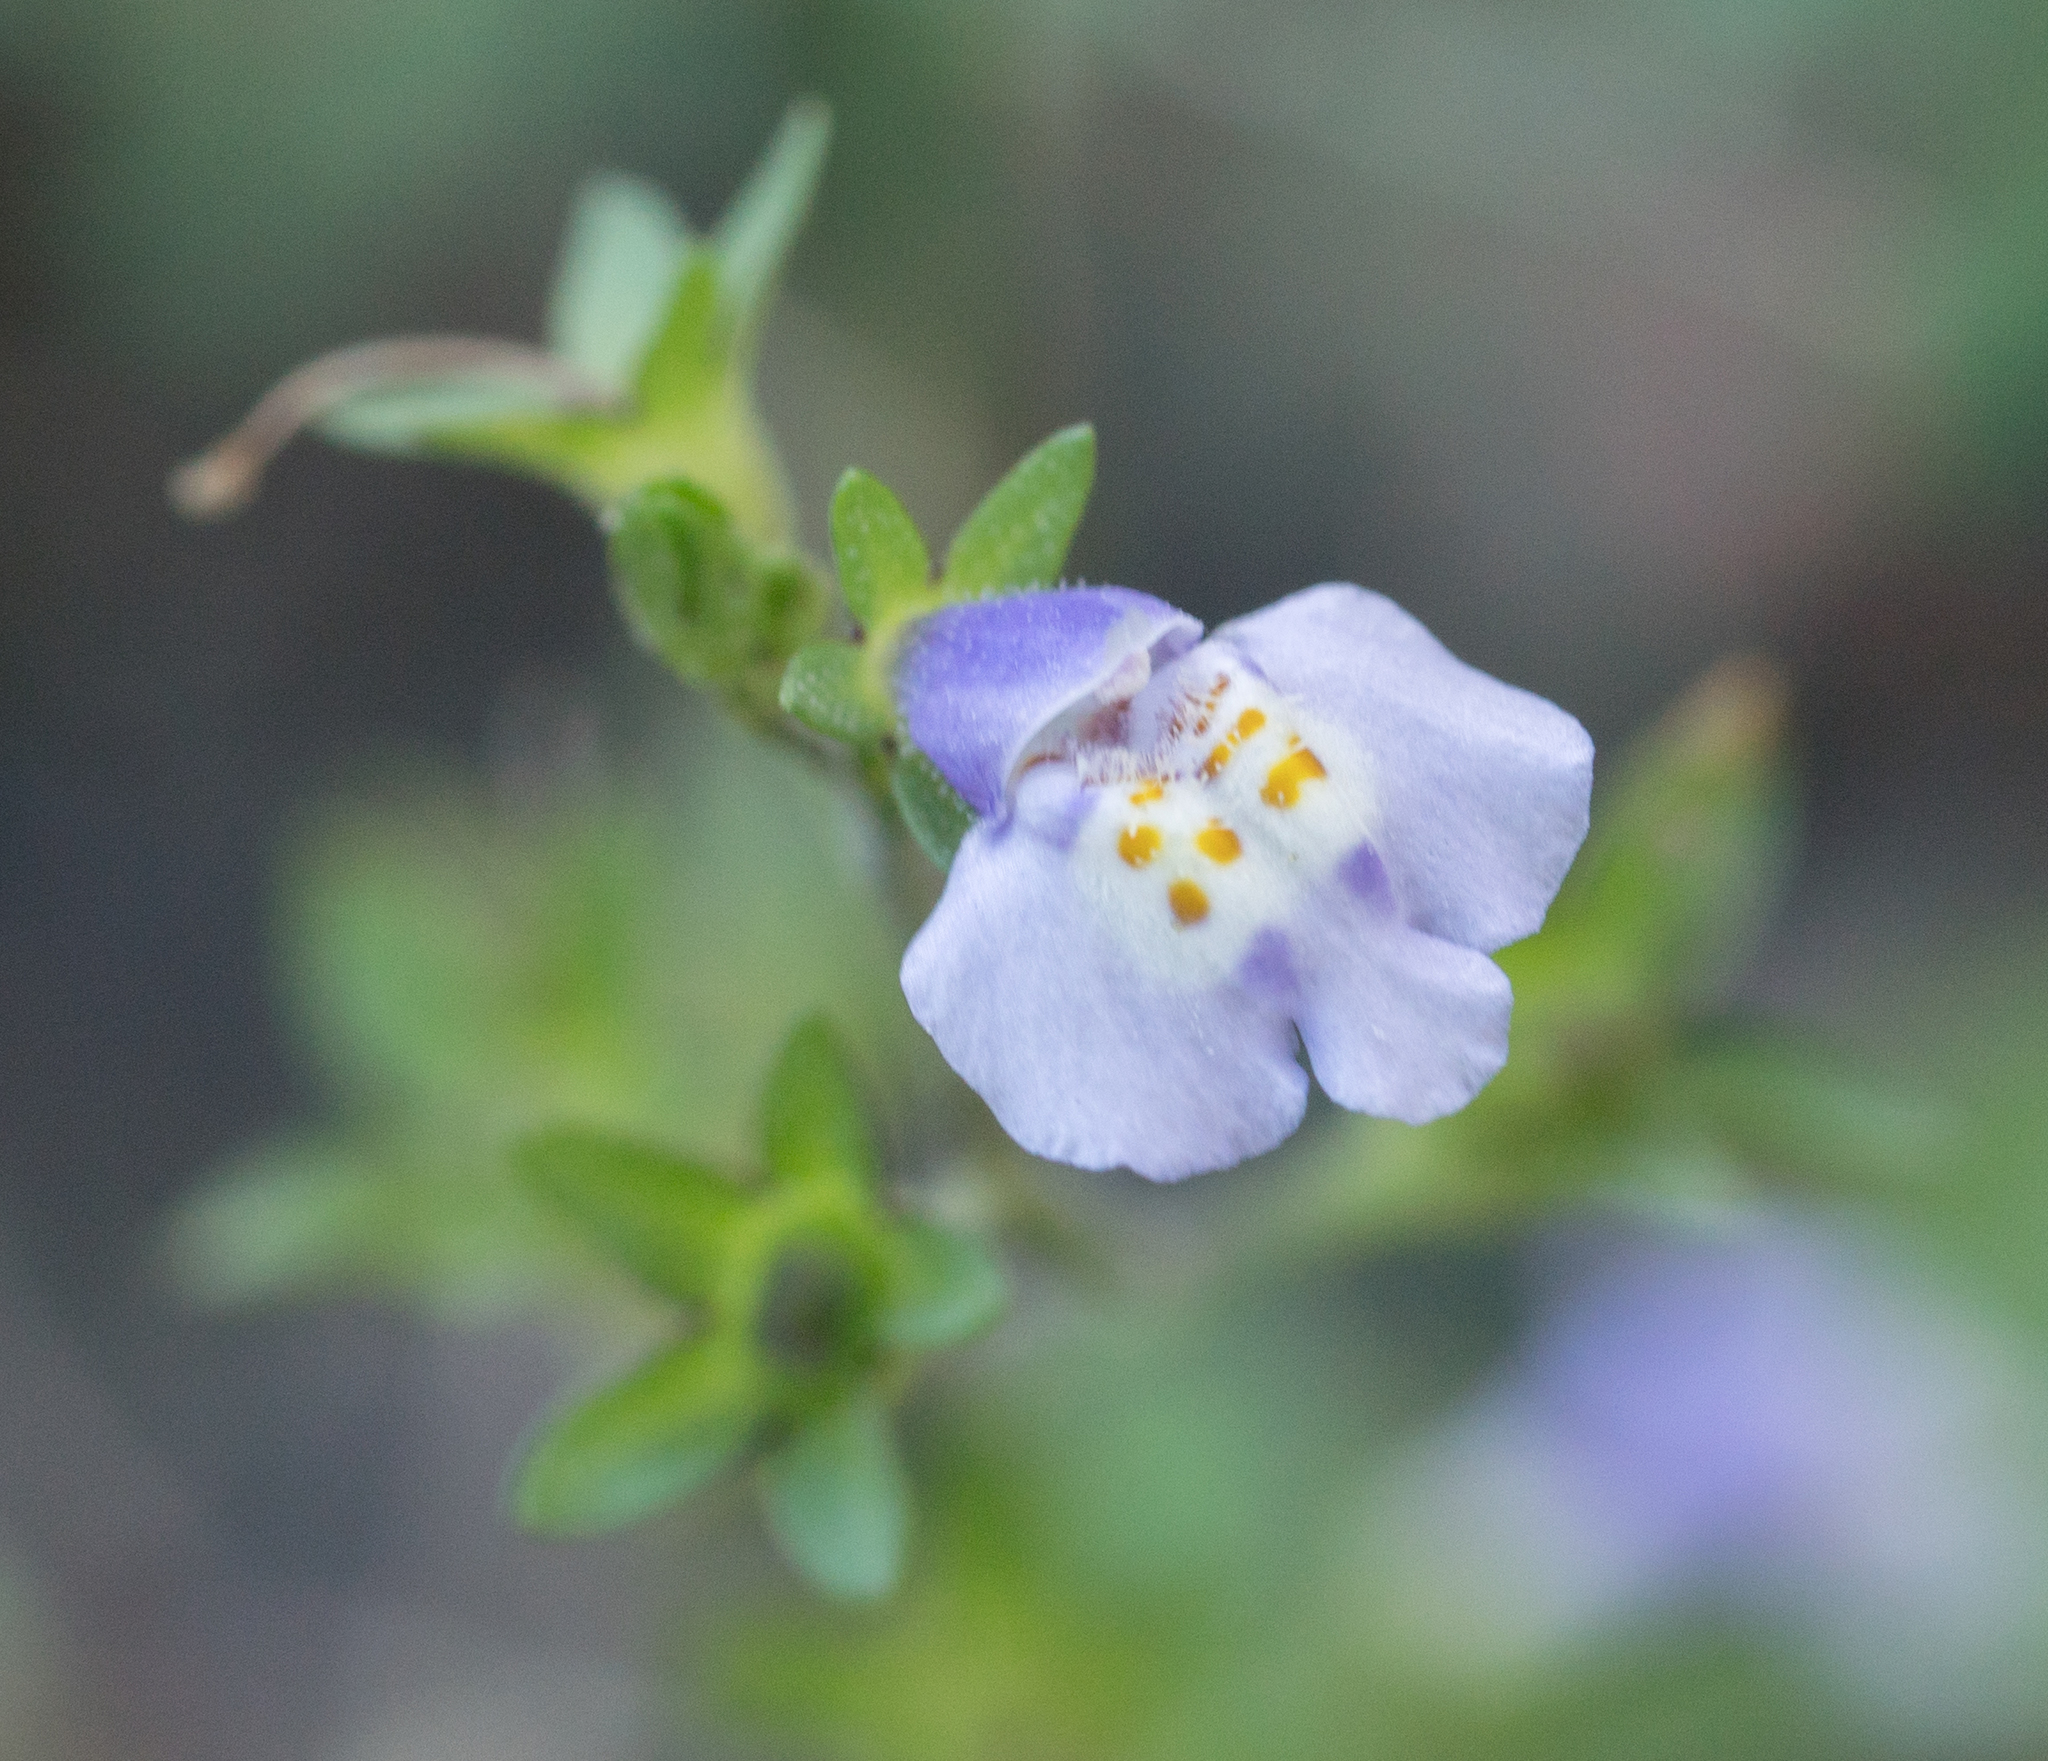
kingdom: Plantae
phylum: Tracheophyta
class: Magnoliopsida
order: Lamiales
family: Mazaceae
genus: Mazus
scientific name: Mazus pumilus
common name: Japanese mazus
